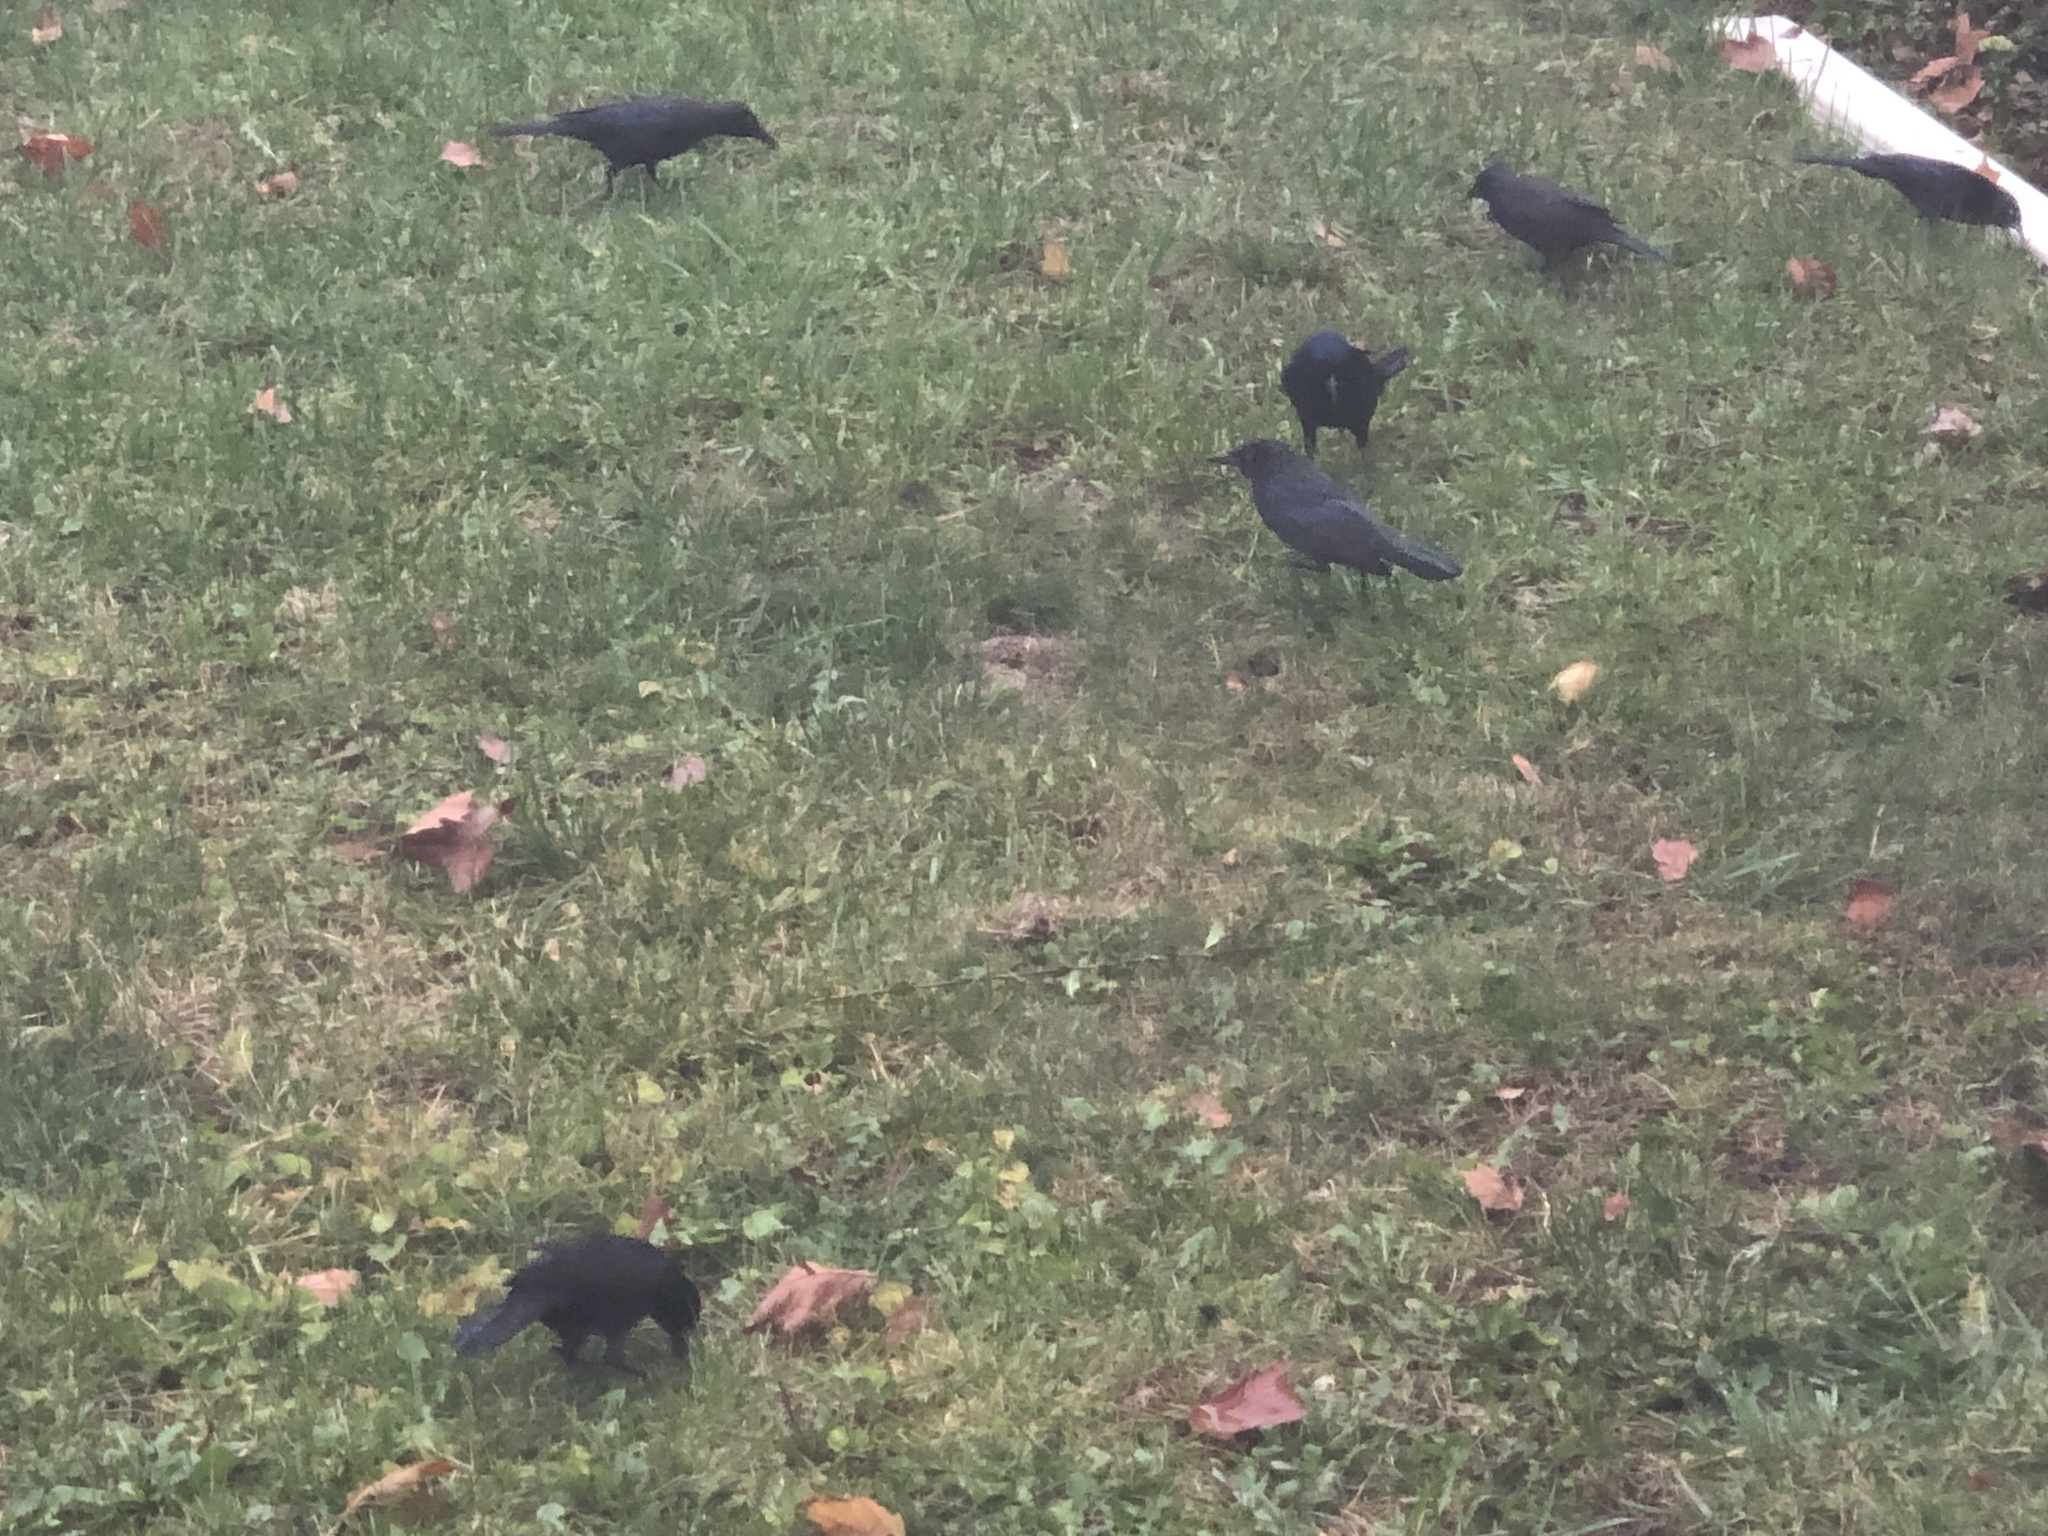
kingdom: Animalia
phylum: Chordata
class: Aves
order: Passeriformes
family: Icteridae
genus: Quiscalus
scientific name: Quiscalus quiscula
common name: Common grackle
